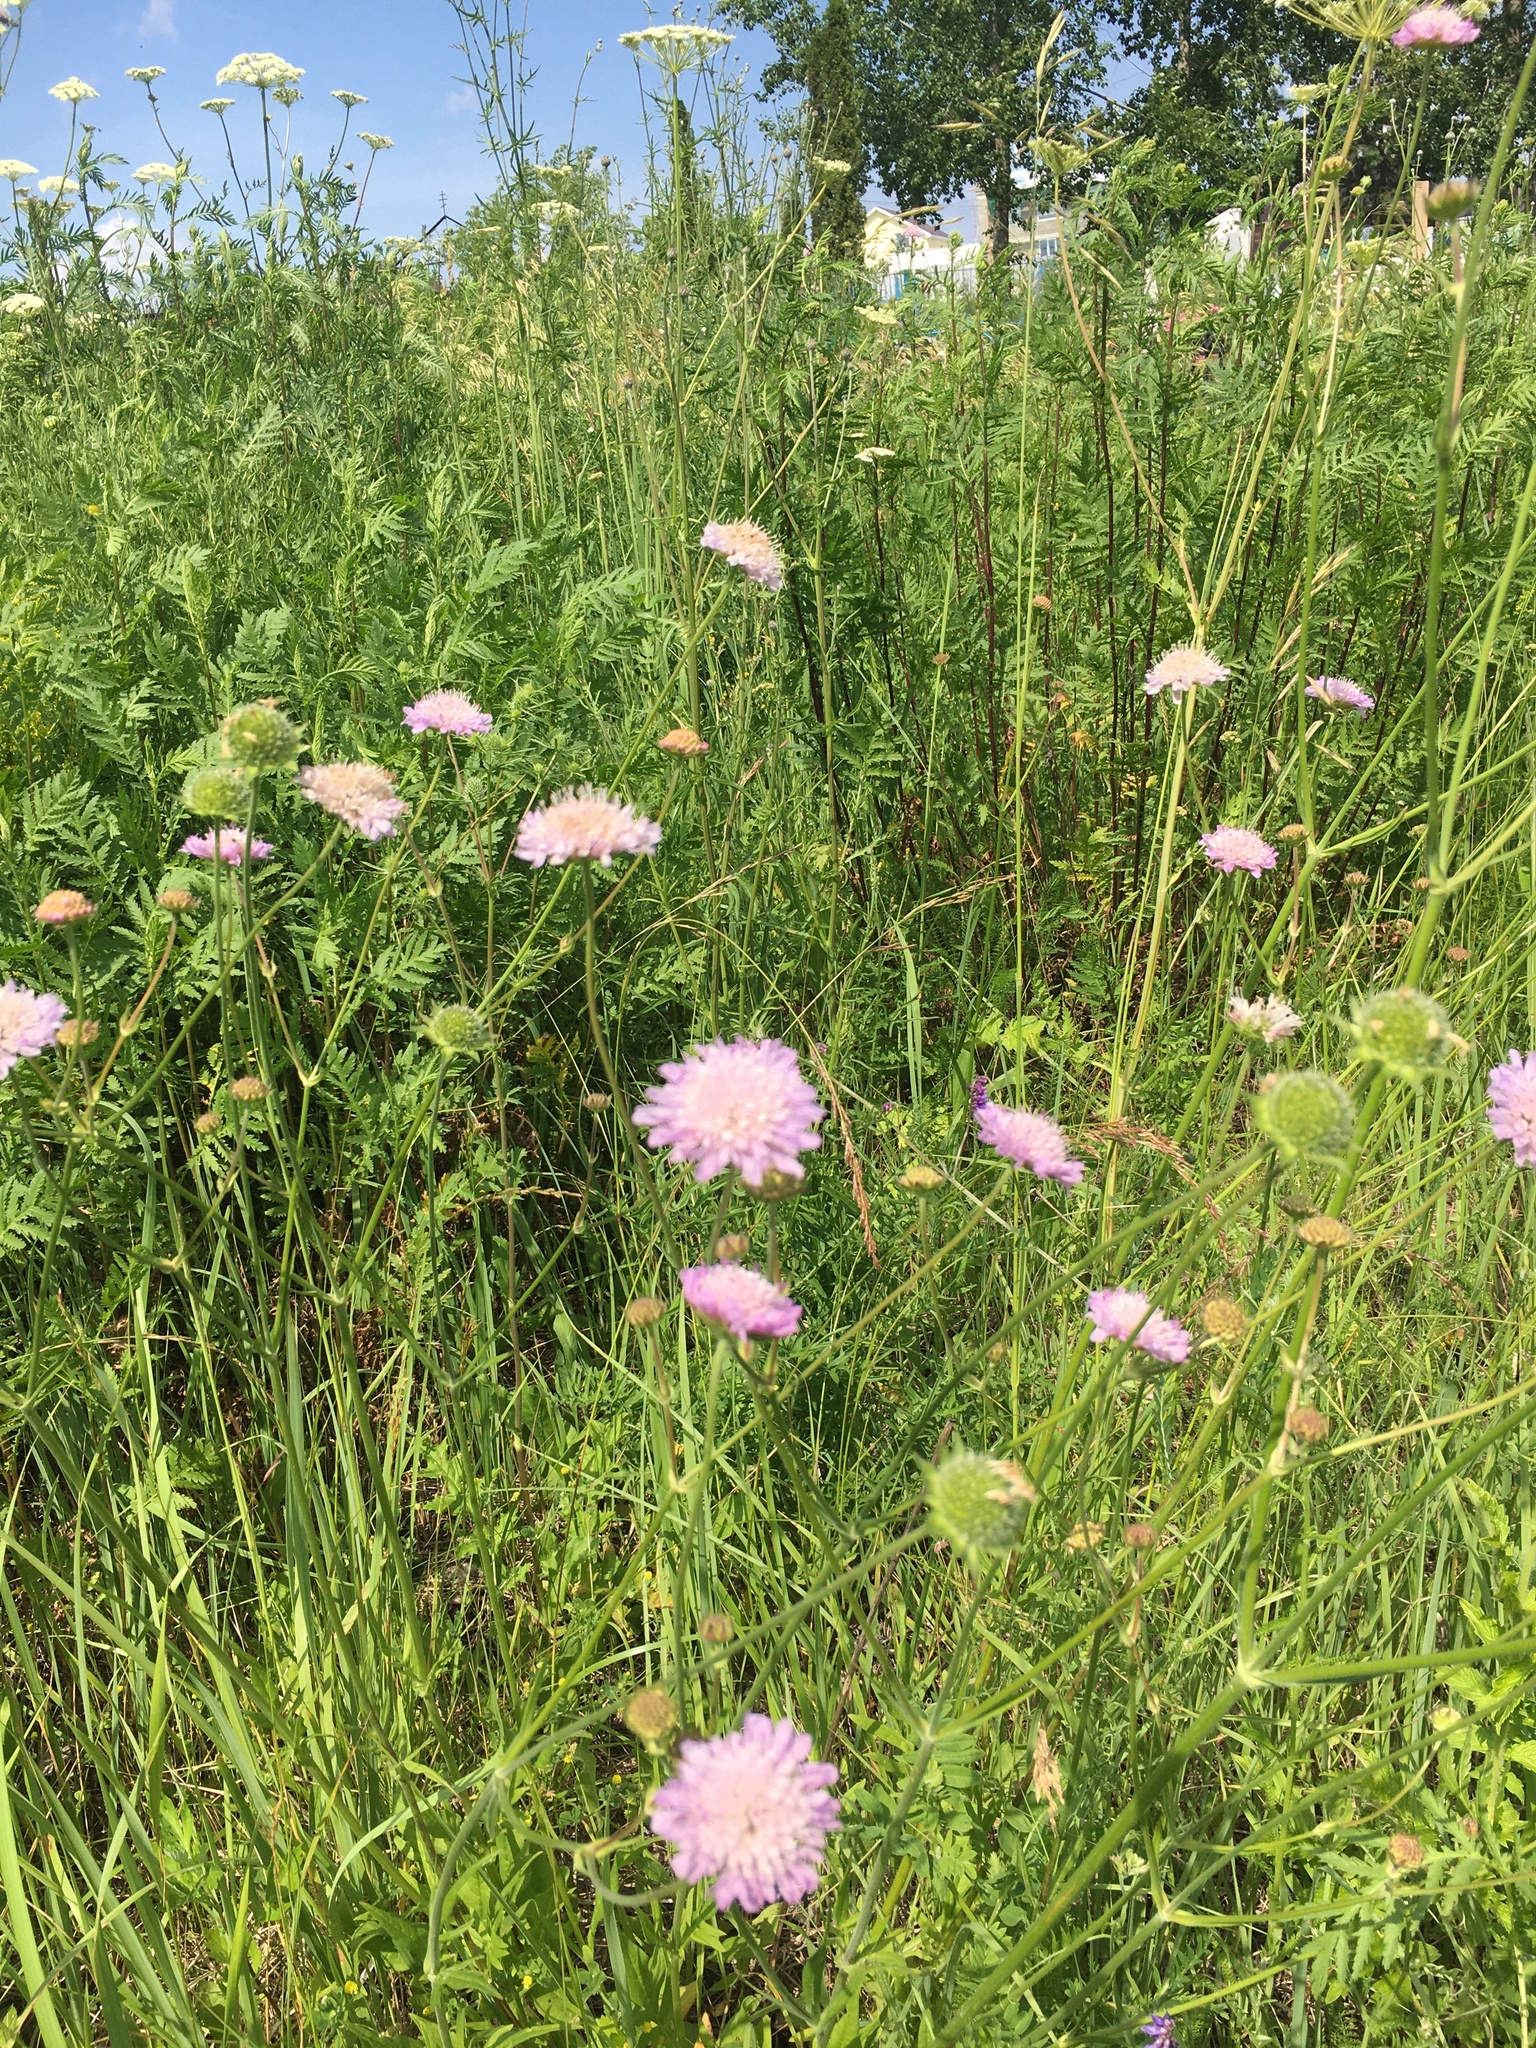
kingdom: Plantae
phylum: Tracheophyta
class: Magnoliopsida
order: Dipsacales
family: Caprifoliaceae
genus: Knautia
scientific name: Knautia arvensis
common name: Field scabiosa
